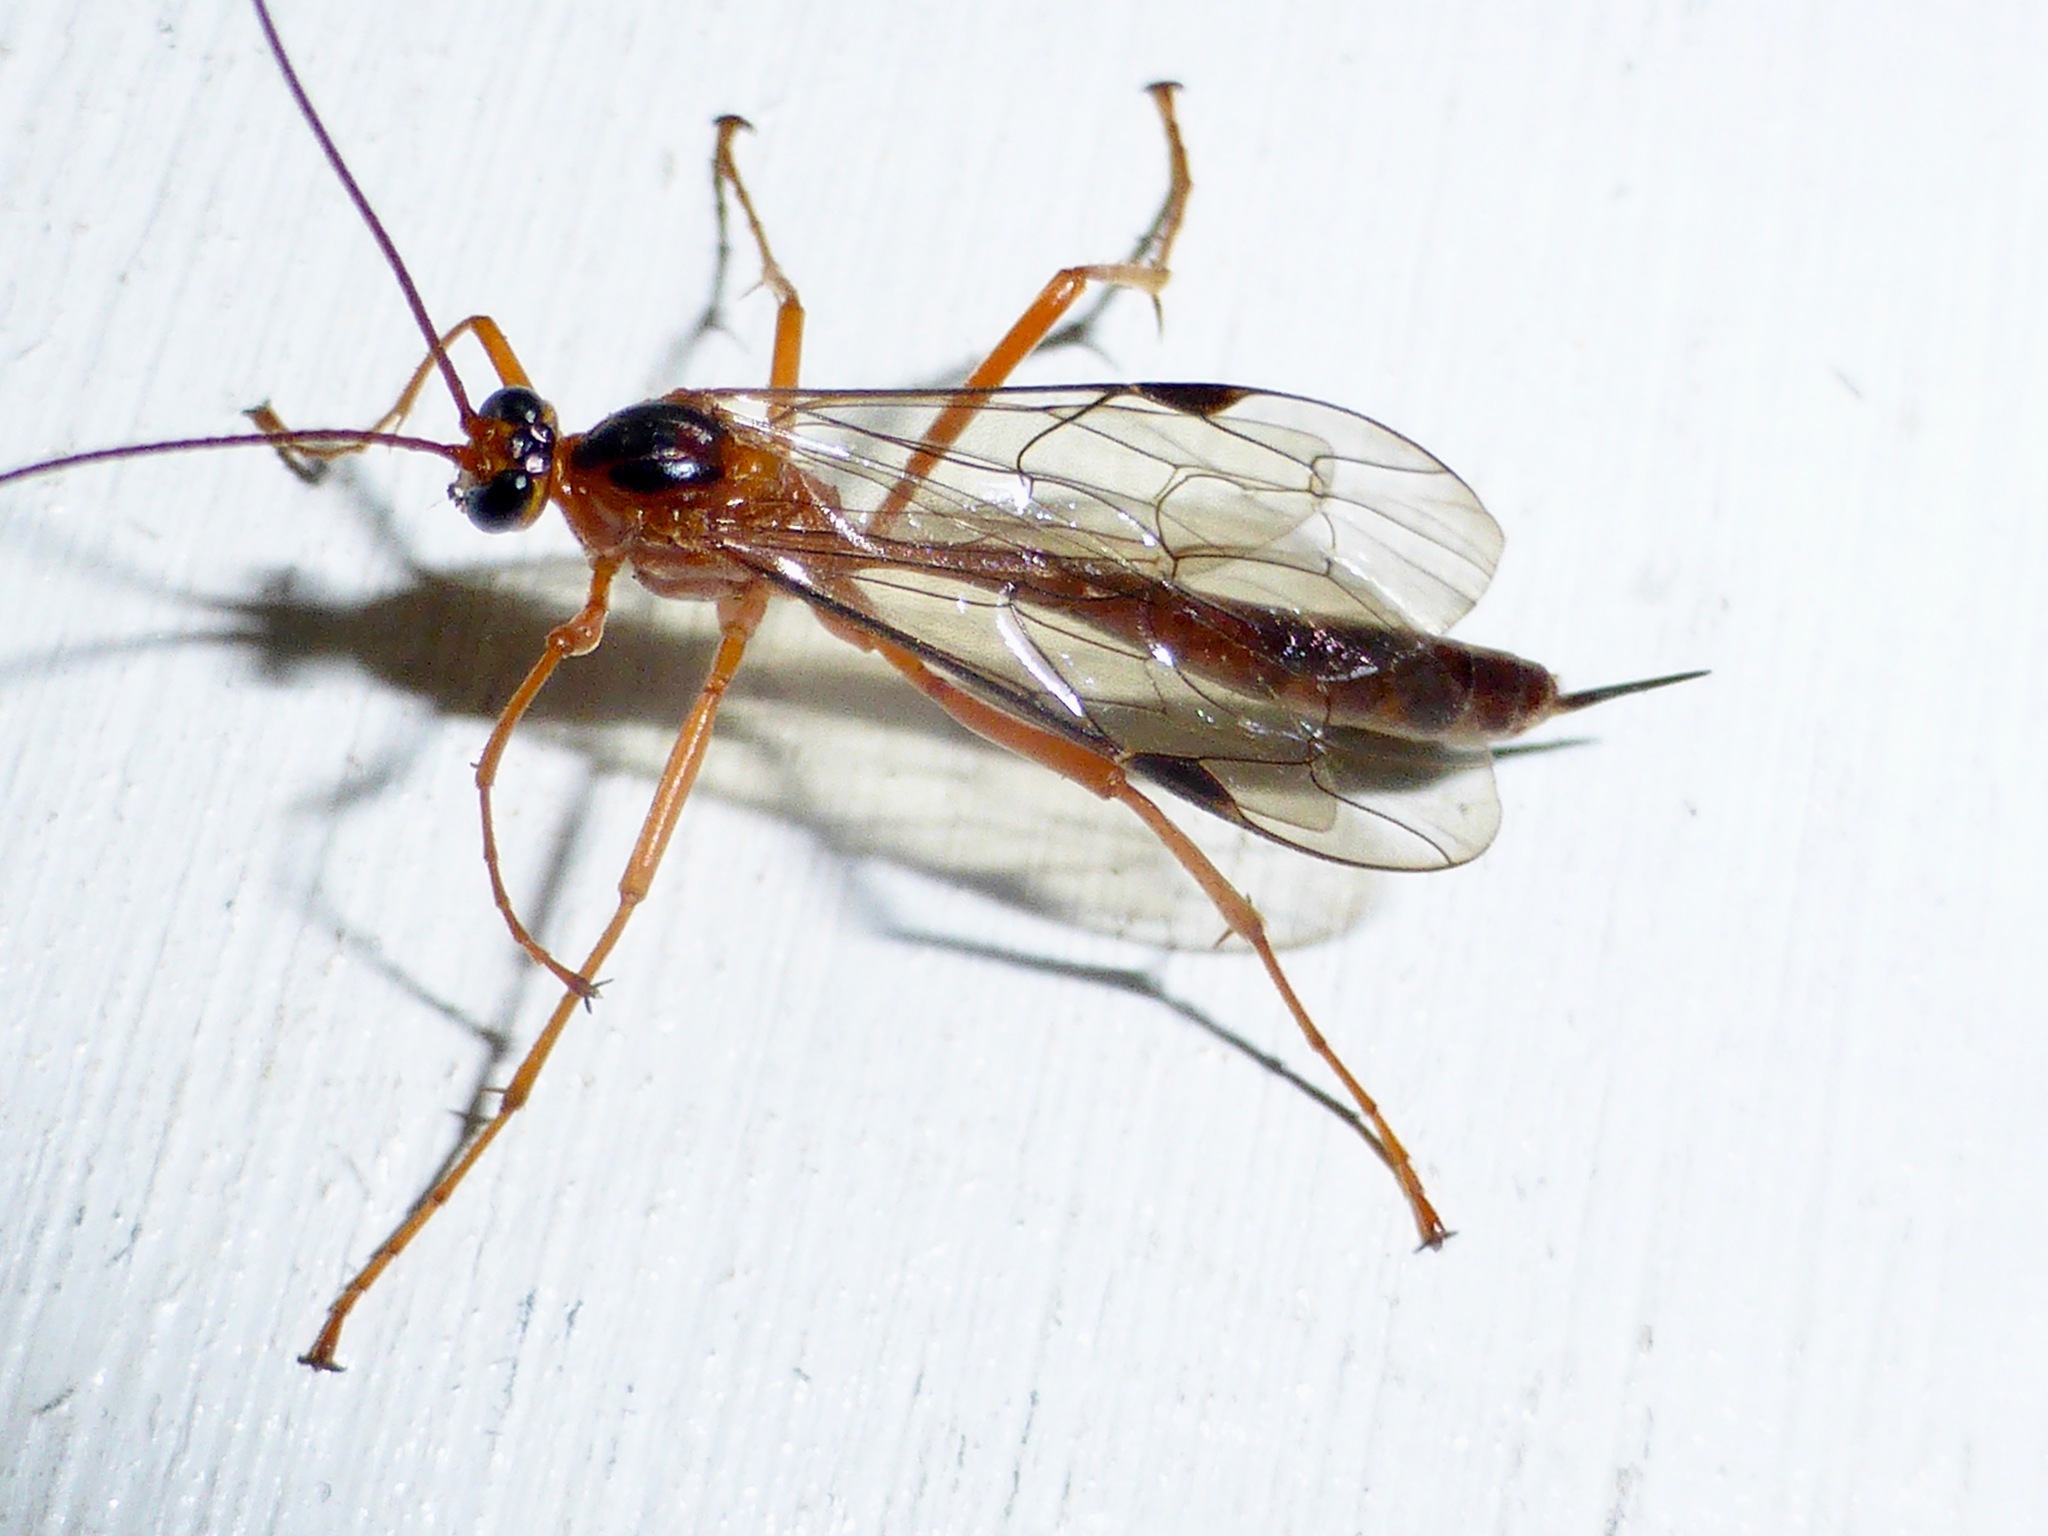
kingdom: Animalia
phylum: Arthropoda
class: Insecta
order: Hymenoptera
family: Ichneumonidae
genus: Netelia
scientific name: Netelia ephippiata
